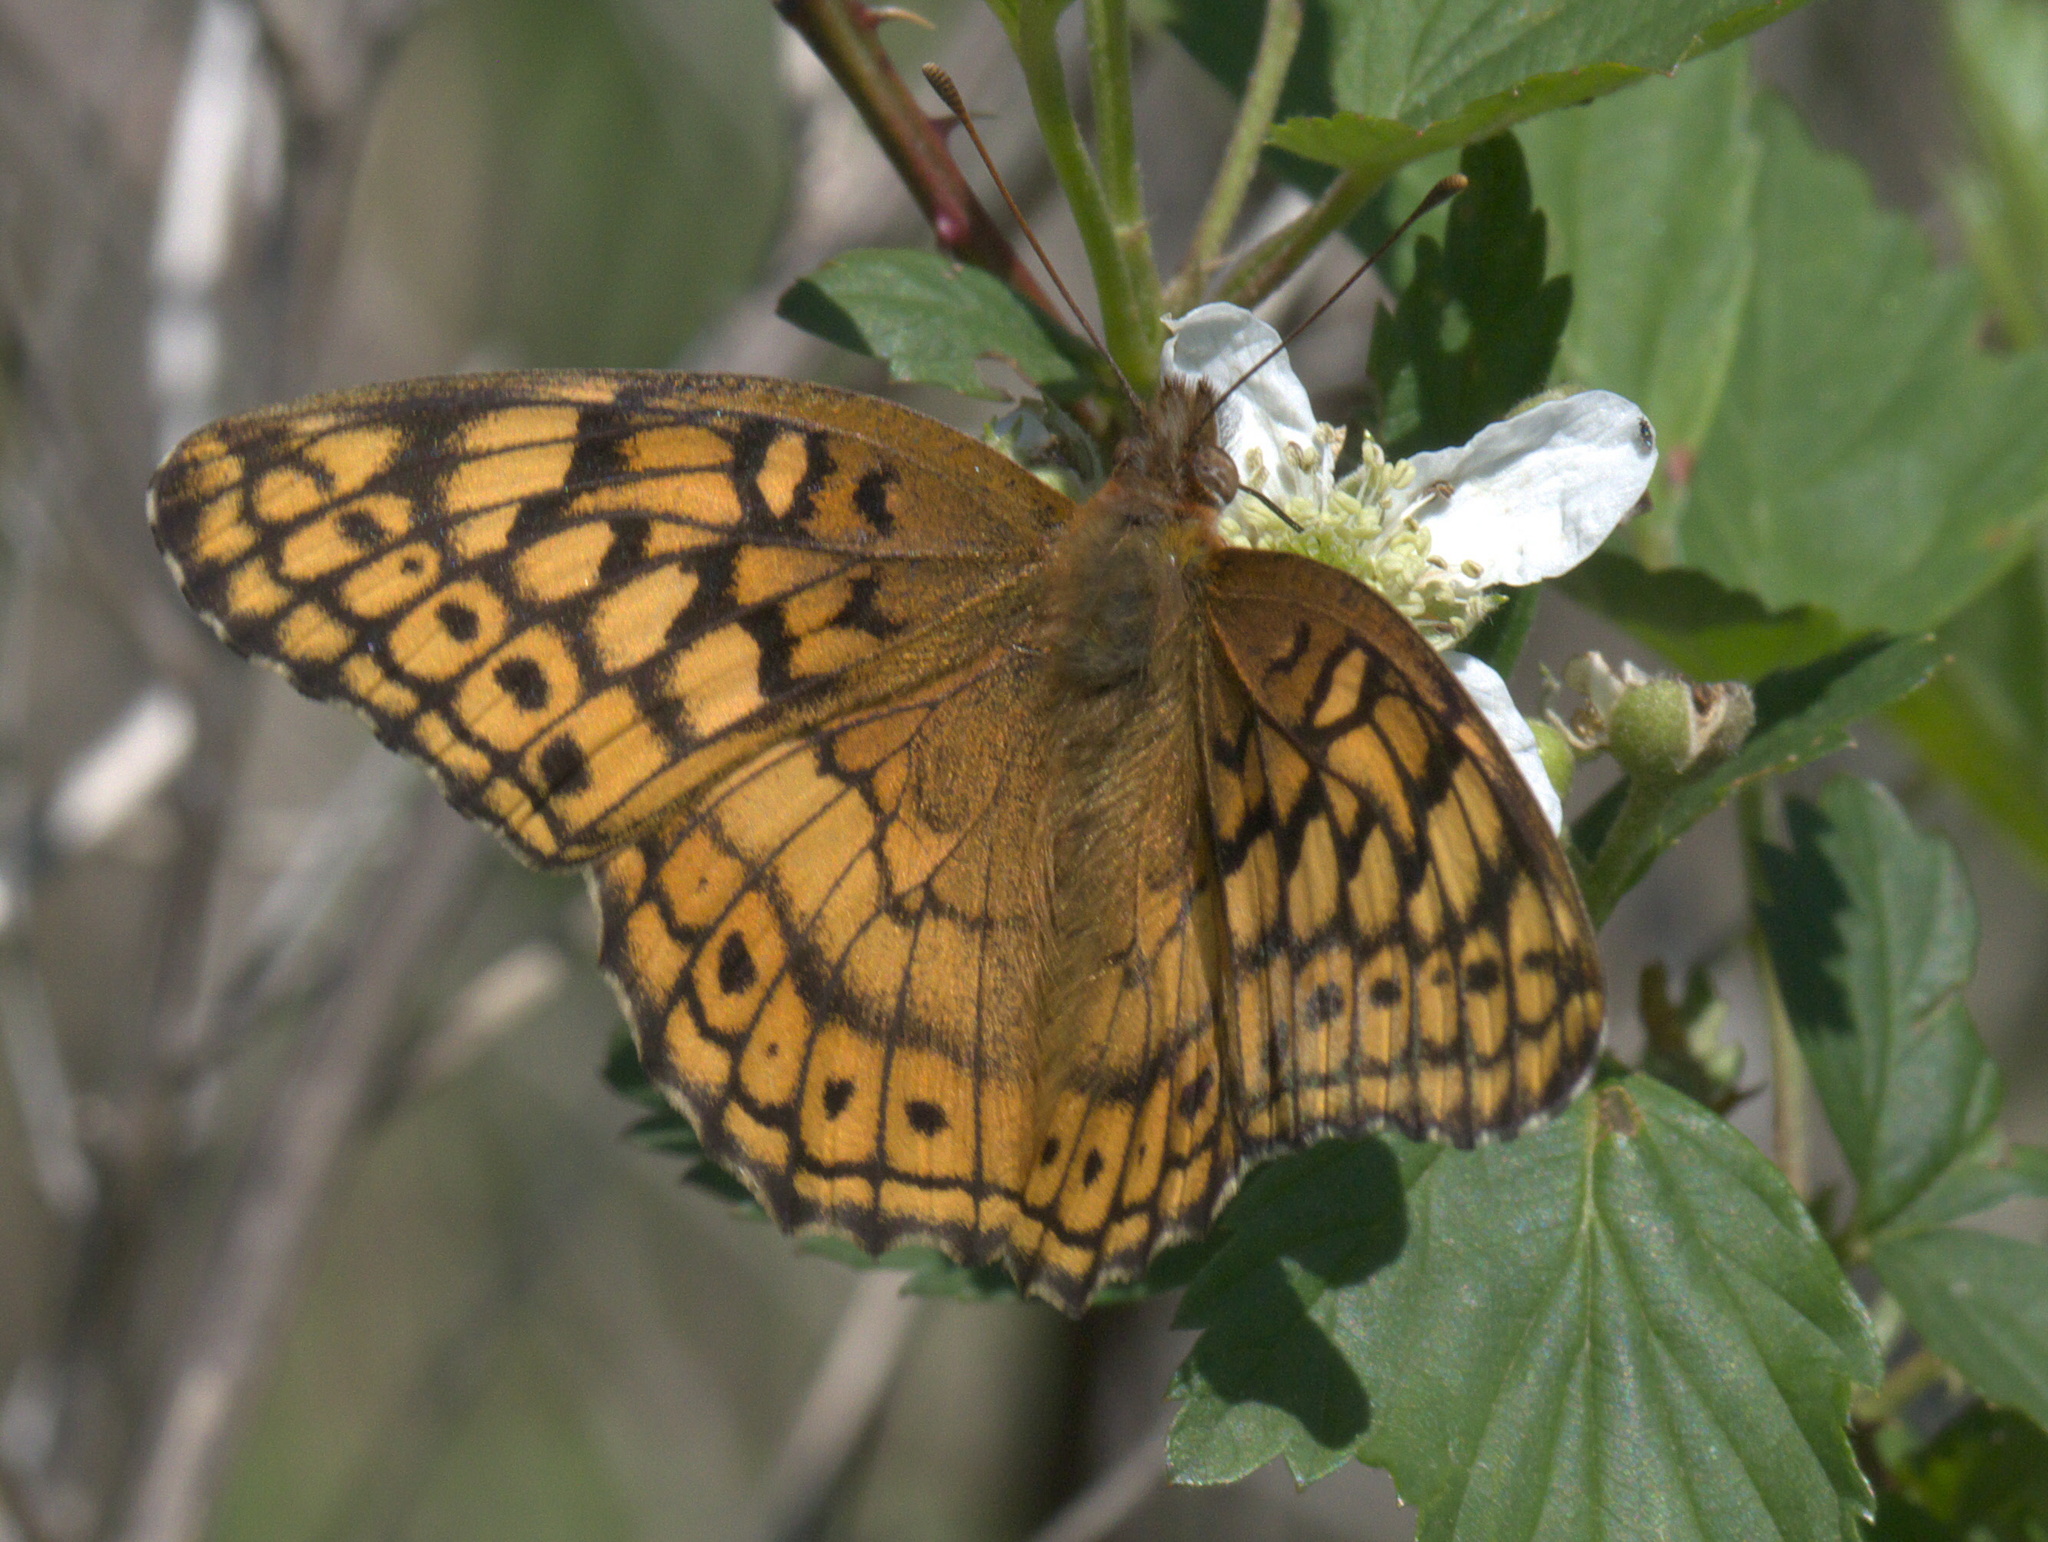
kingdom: Animalia
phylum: Arthropoda
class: Insecta
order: Lepidoptera
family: Nymphalidae
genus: Euptoieta
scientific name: Euptoieta claudia
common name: Variegated fritillary
